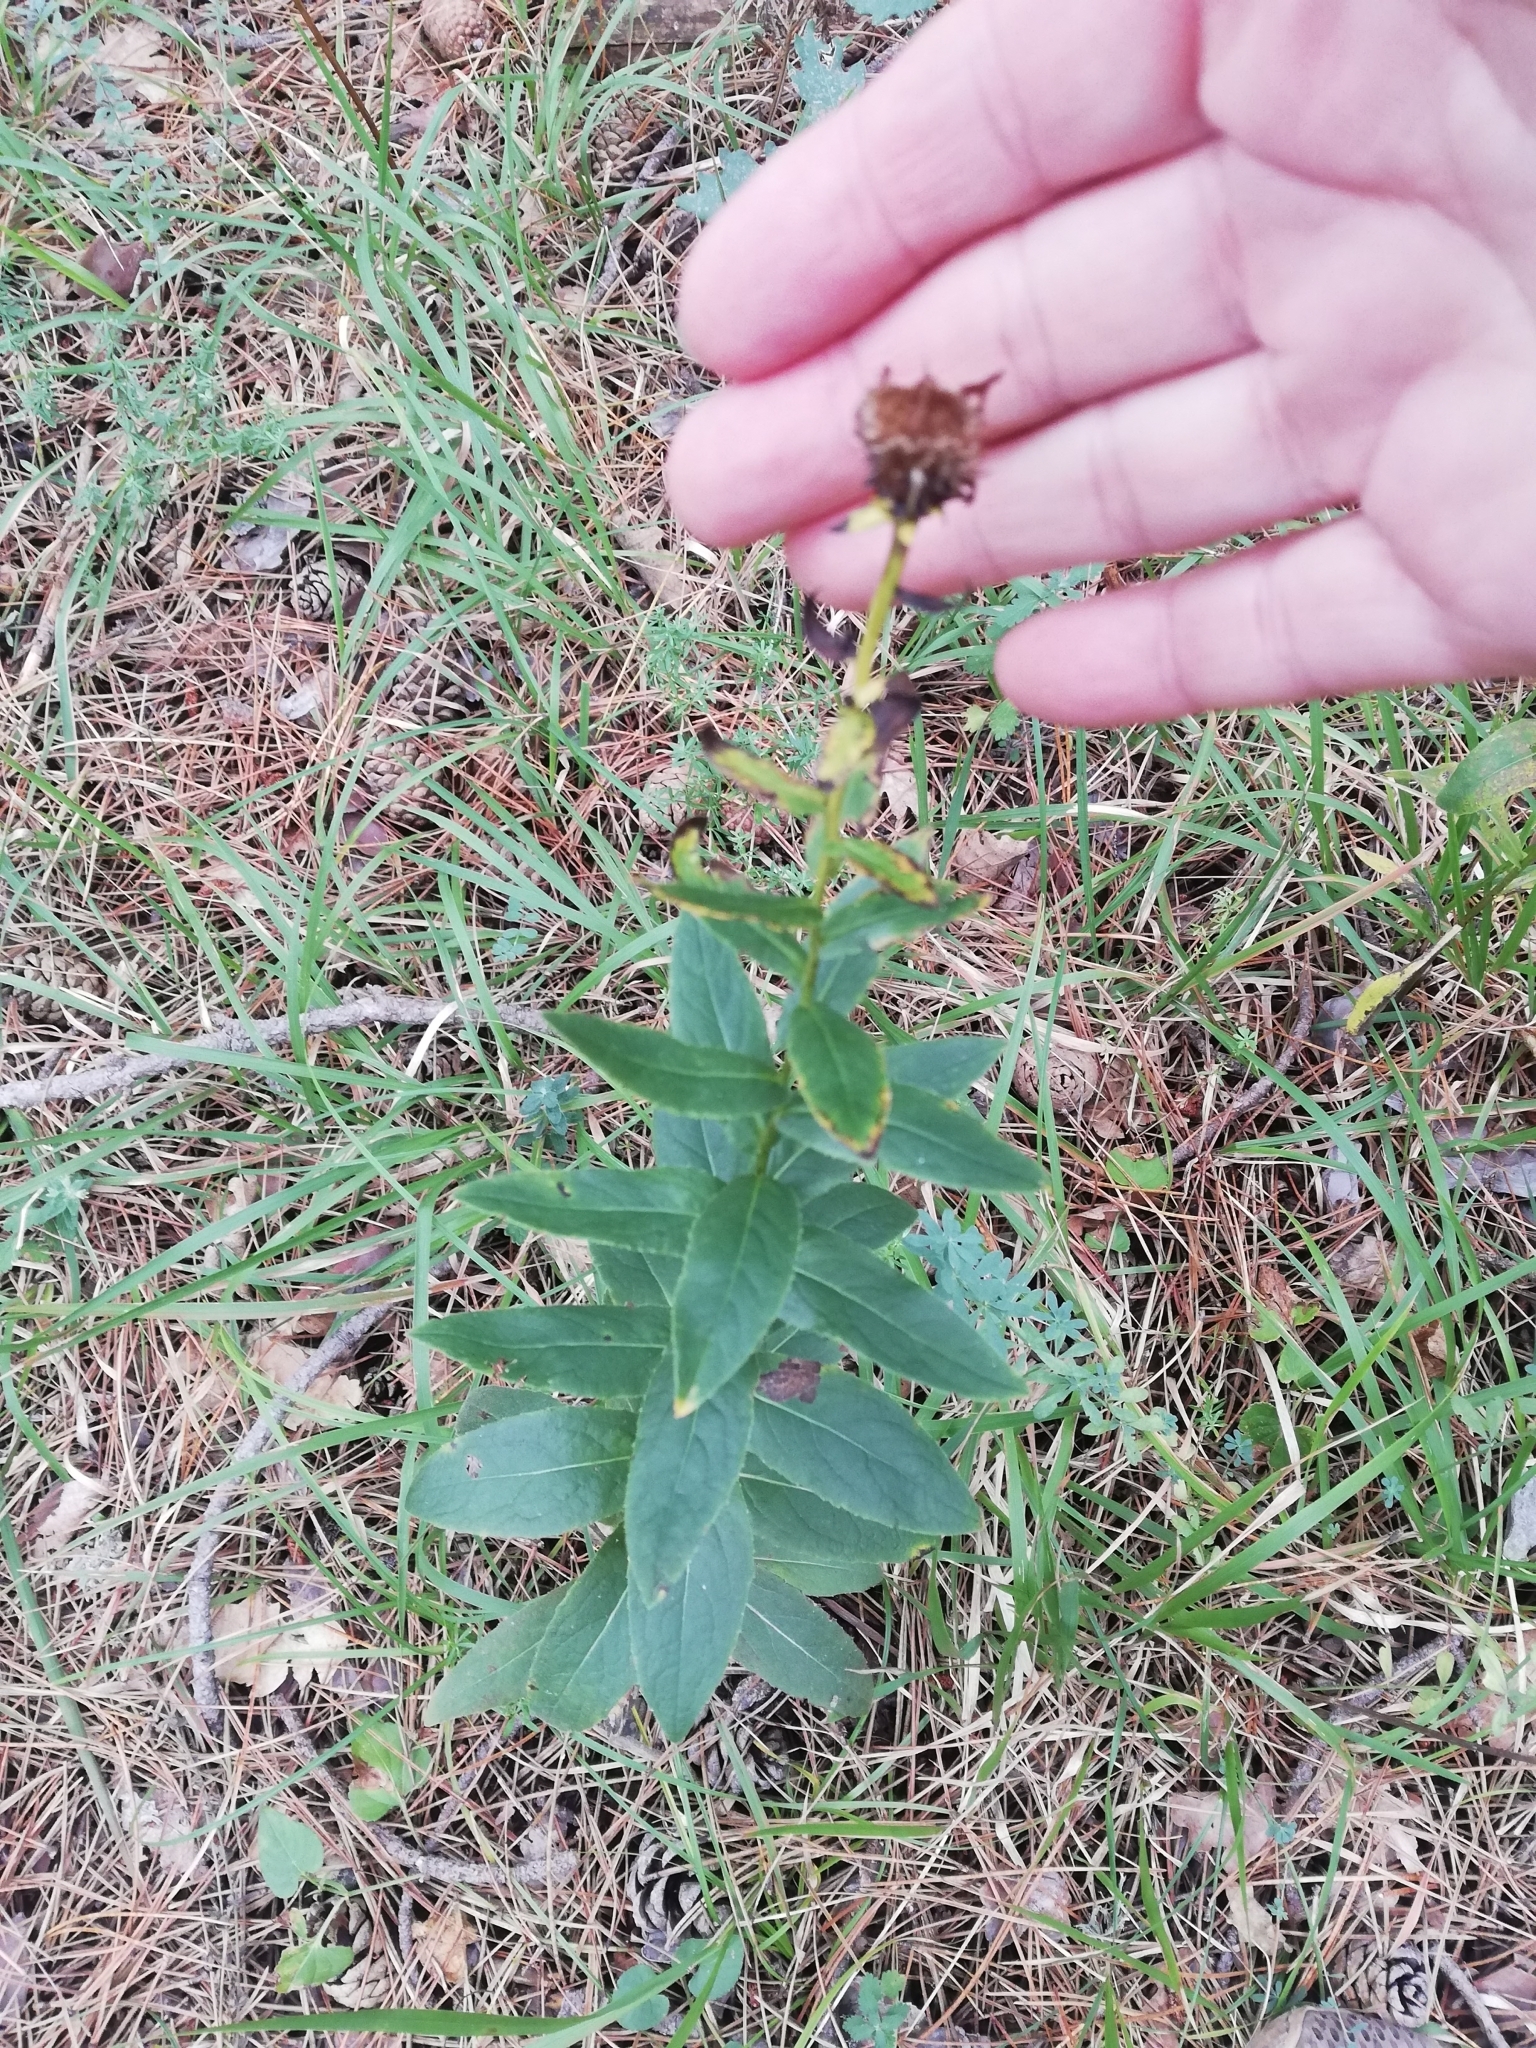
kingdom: Plantae
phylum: Tracheophyta
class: Magnoliopsida
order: Asterales
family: Asteraceae
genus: Pentanema
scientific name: Pentanema asperum
